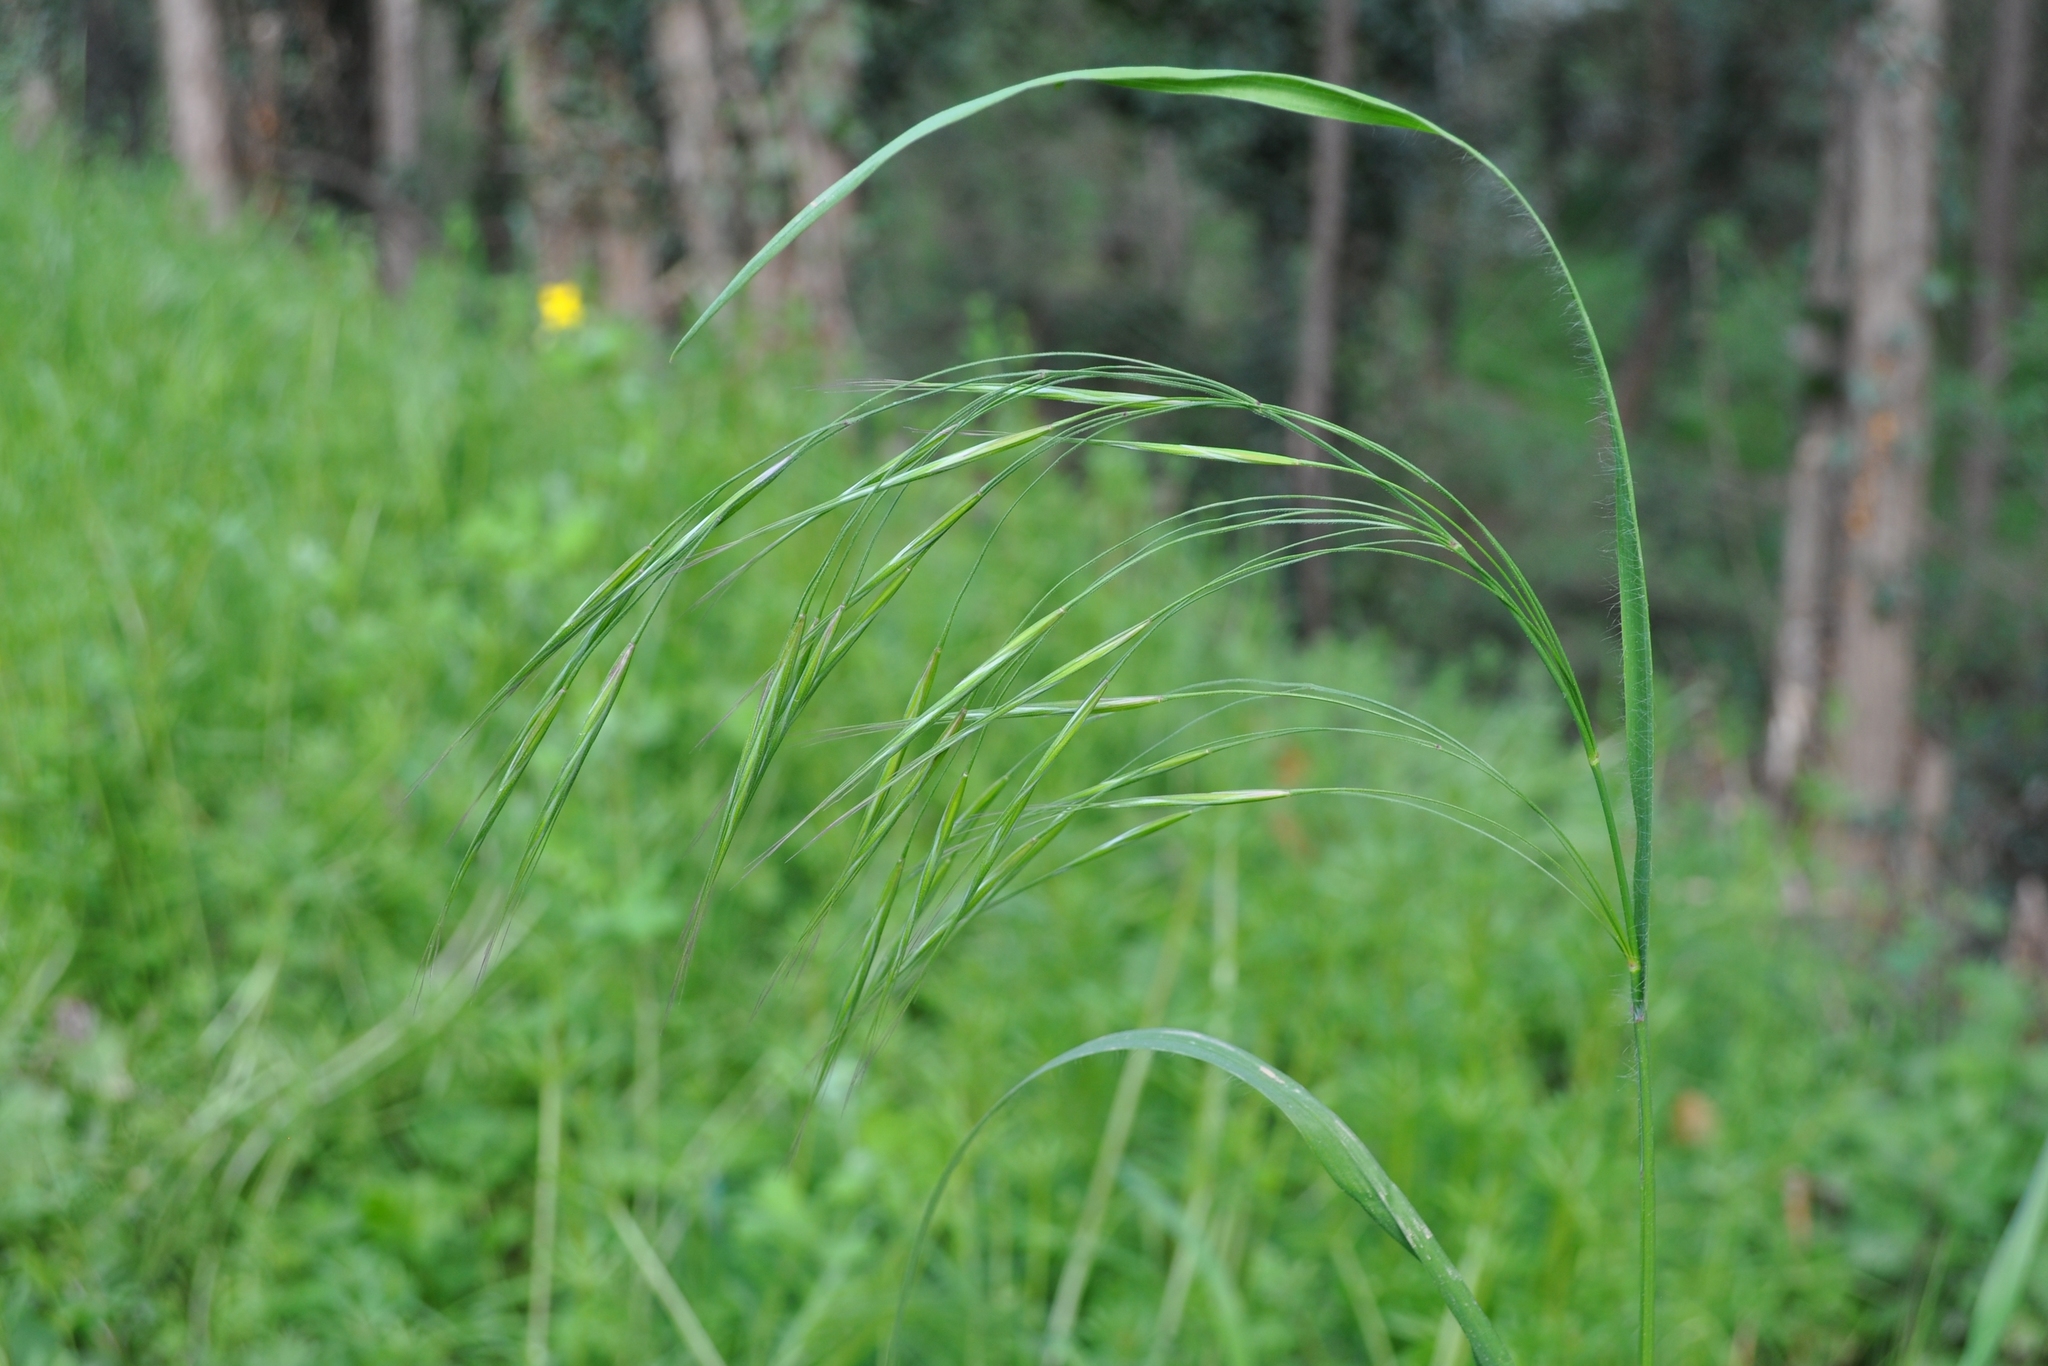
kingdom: Plantae
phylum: Tracheophyta
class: Liliopsida
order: Poales
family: Poaceae
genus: Bromus
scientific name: Bromus sterilis
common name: Poverty brome
